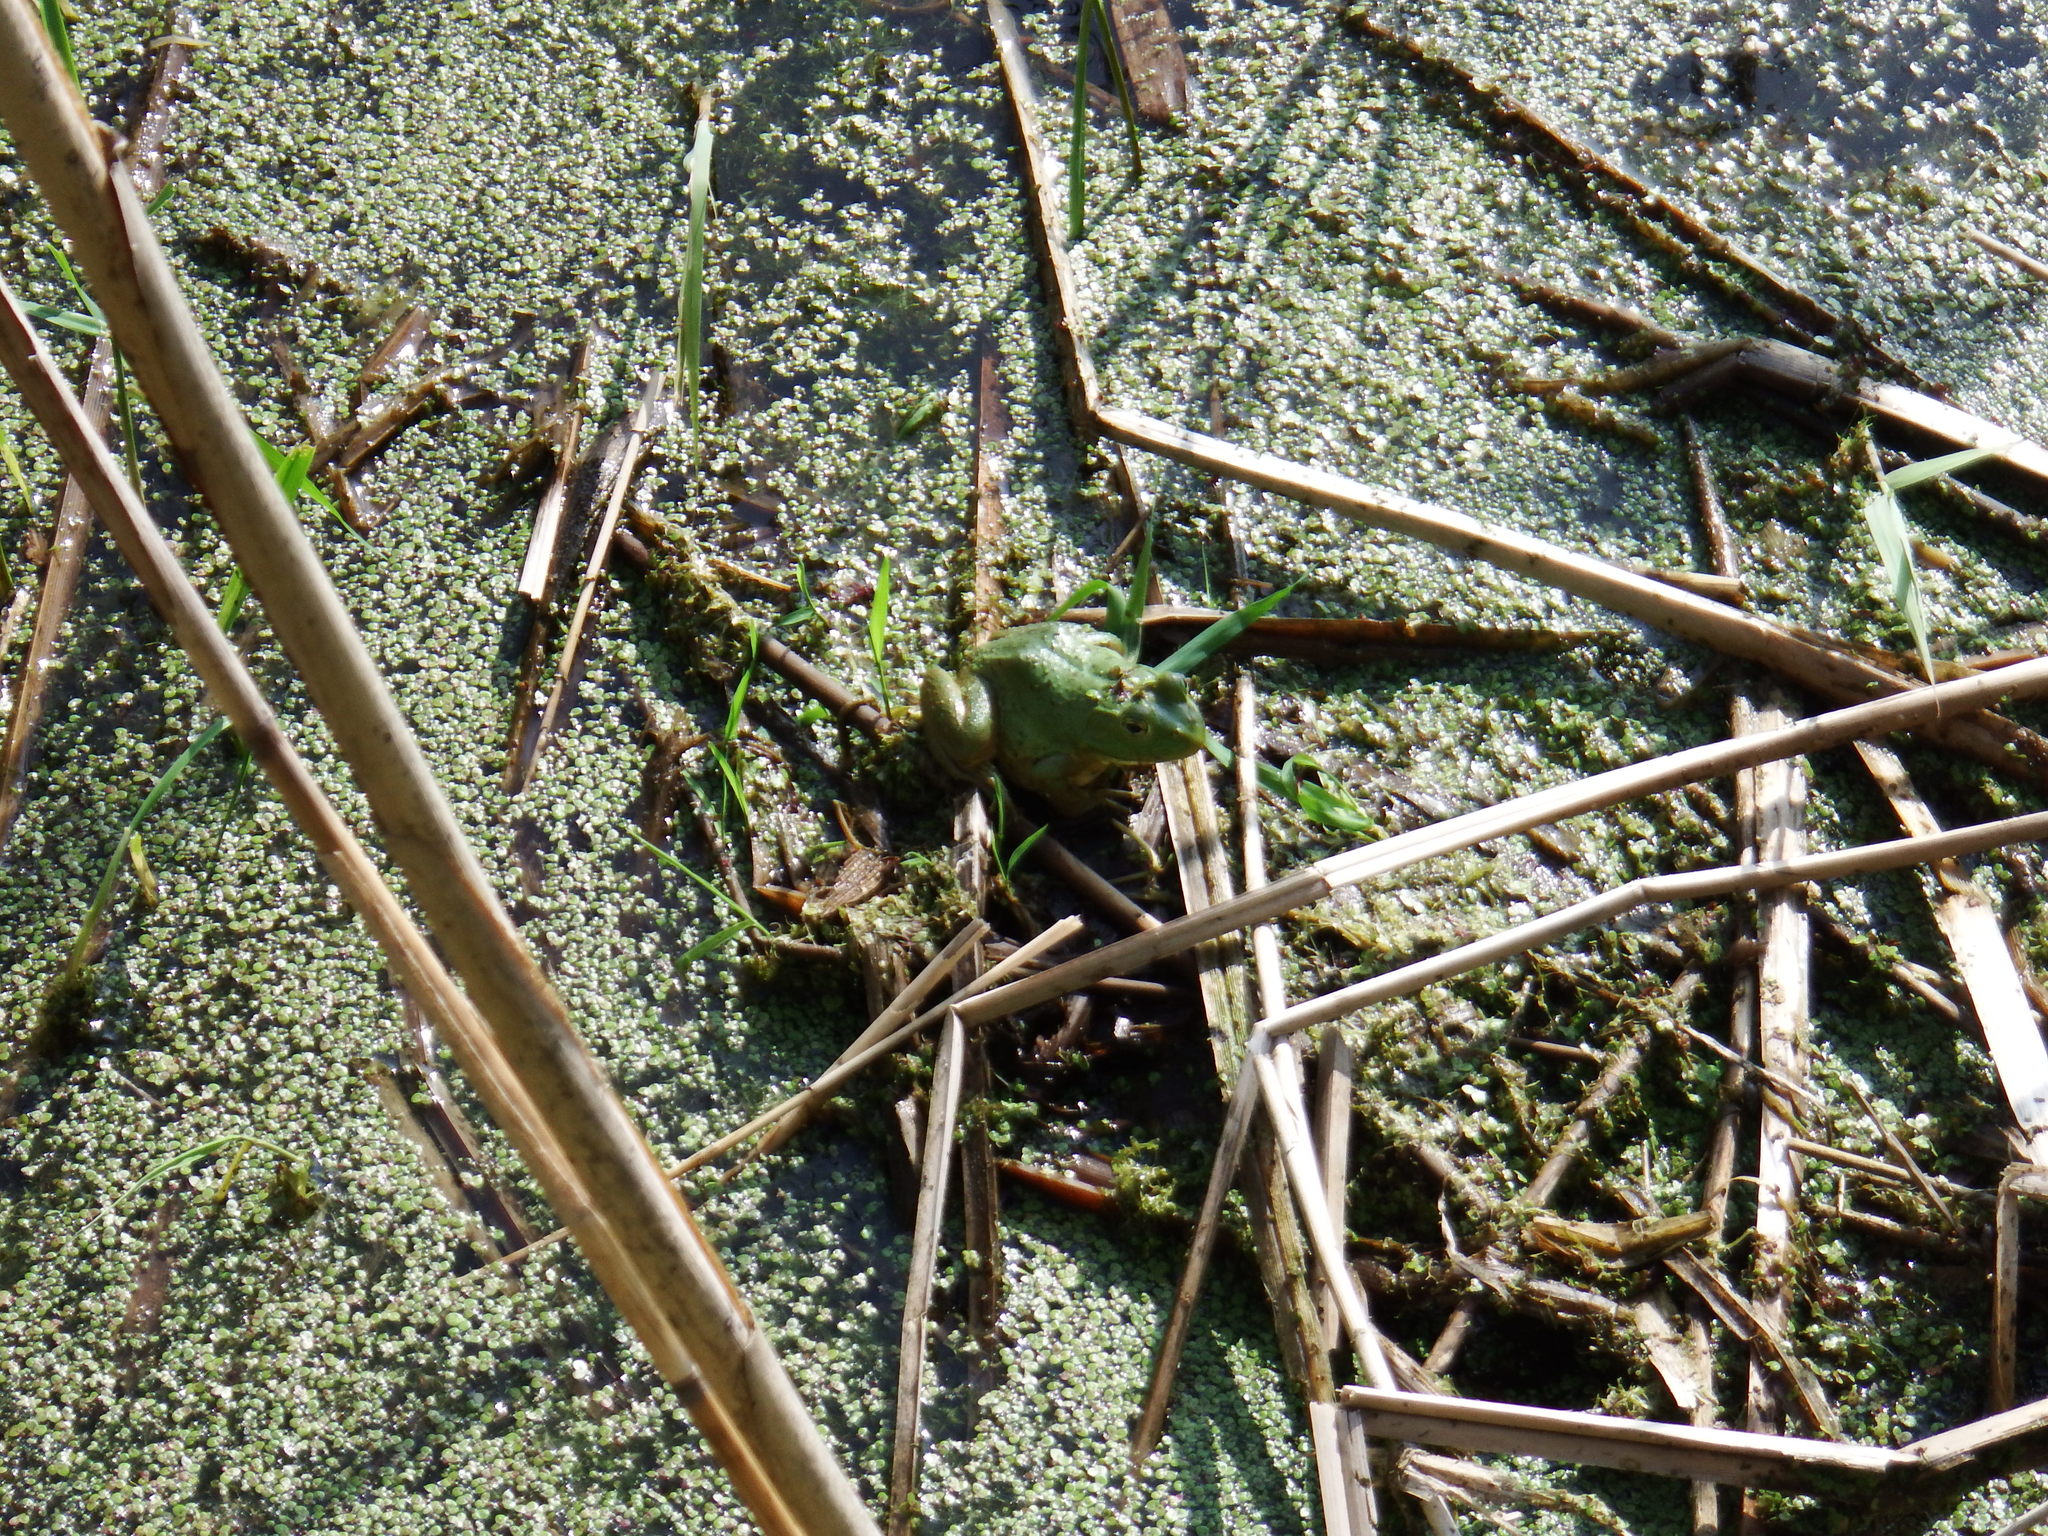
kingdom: Animalia
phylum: Chordata
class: Amphibia
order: Anura
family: Ranidae
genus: Lithobates
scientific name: Lithobates catesbeianus
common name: American bullfrog
